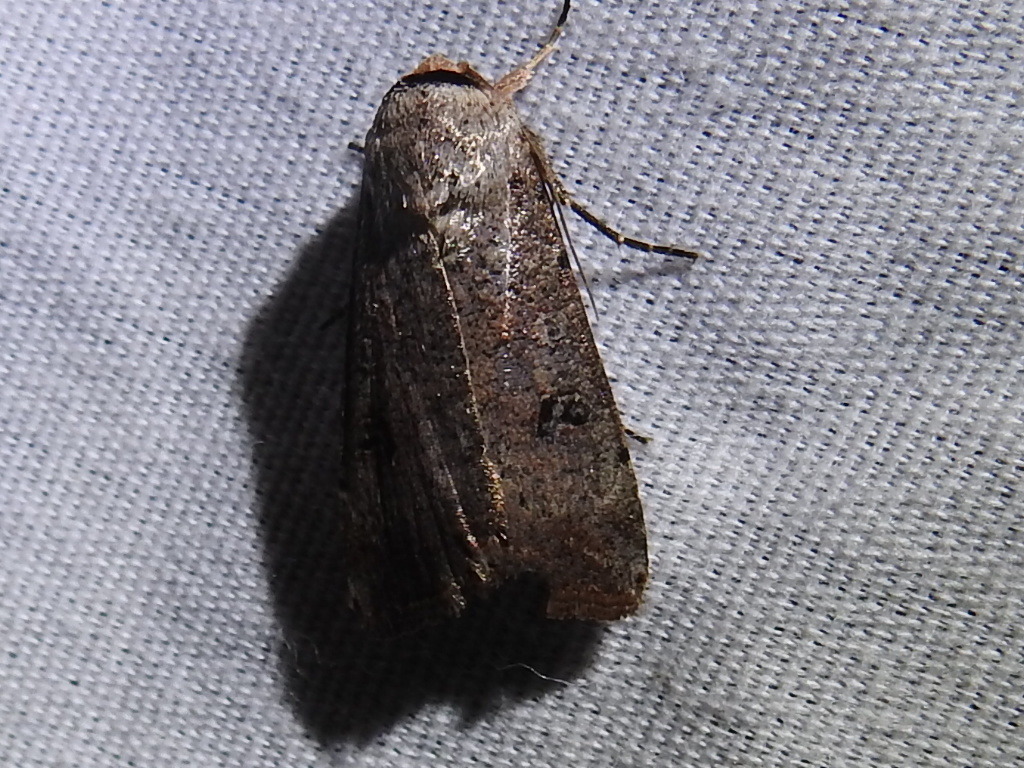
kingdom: Animalia
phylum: Arthropoda
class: Insecta
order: Lepidoptera
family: Noctuidae
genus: Anicla
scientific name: Anicla infecta
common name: Green cutworm
